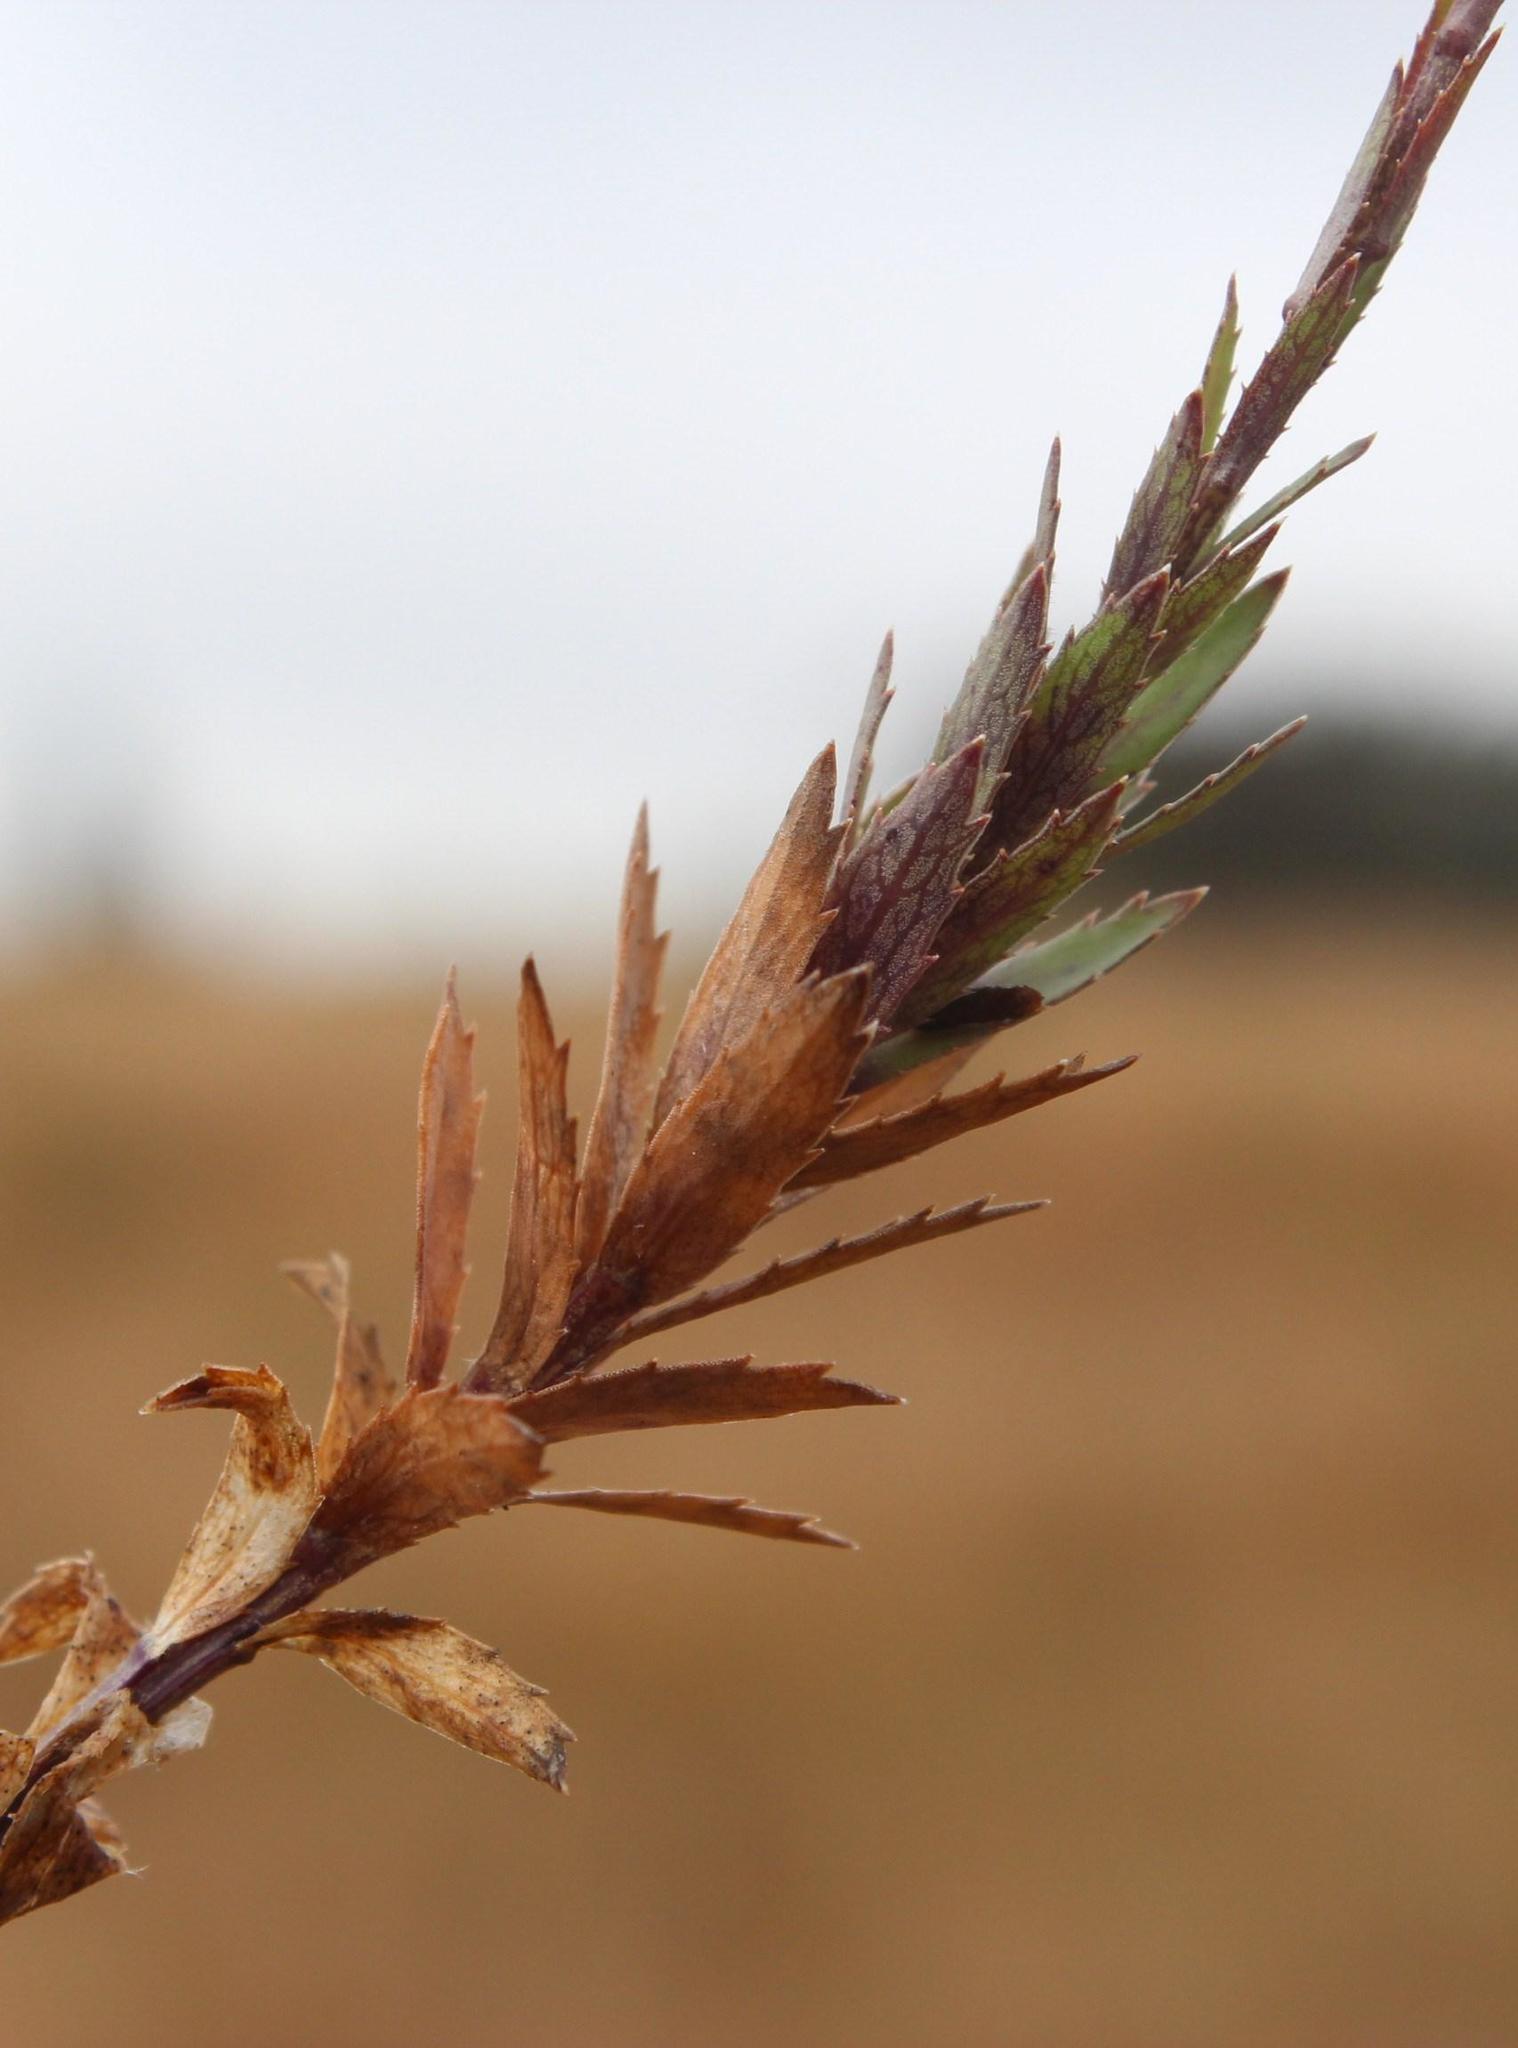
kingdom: Plantae
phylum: Tracheophyta
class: Magnoliopsida
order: Asterales
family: Campanulaceae
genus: Monopsis
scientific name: Monopsis lutea
